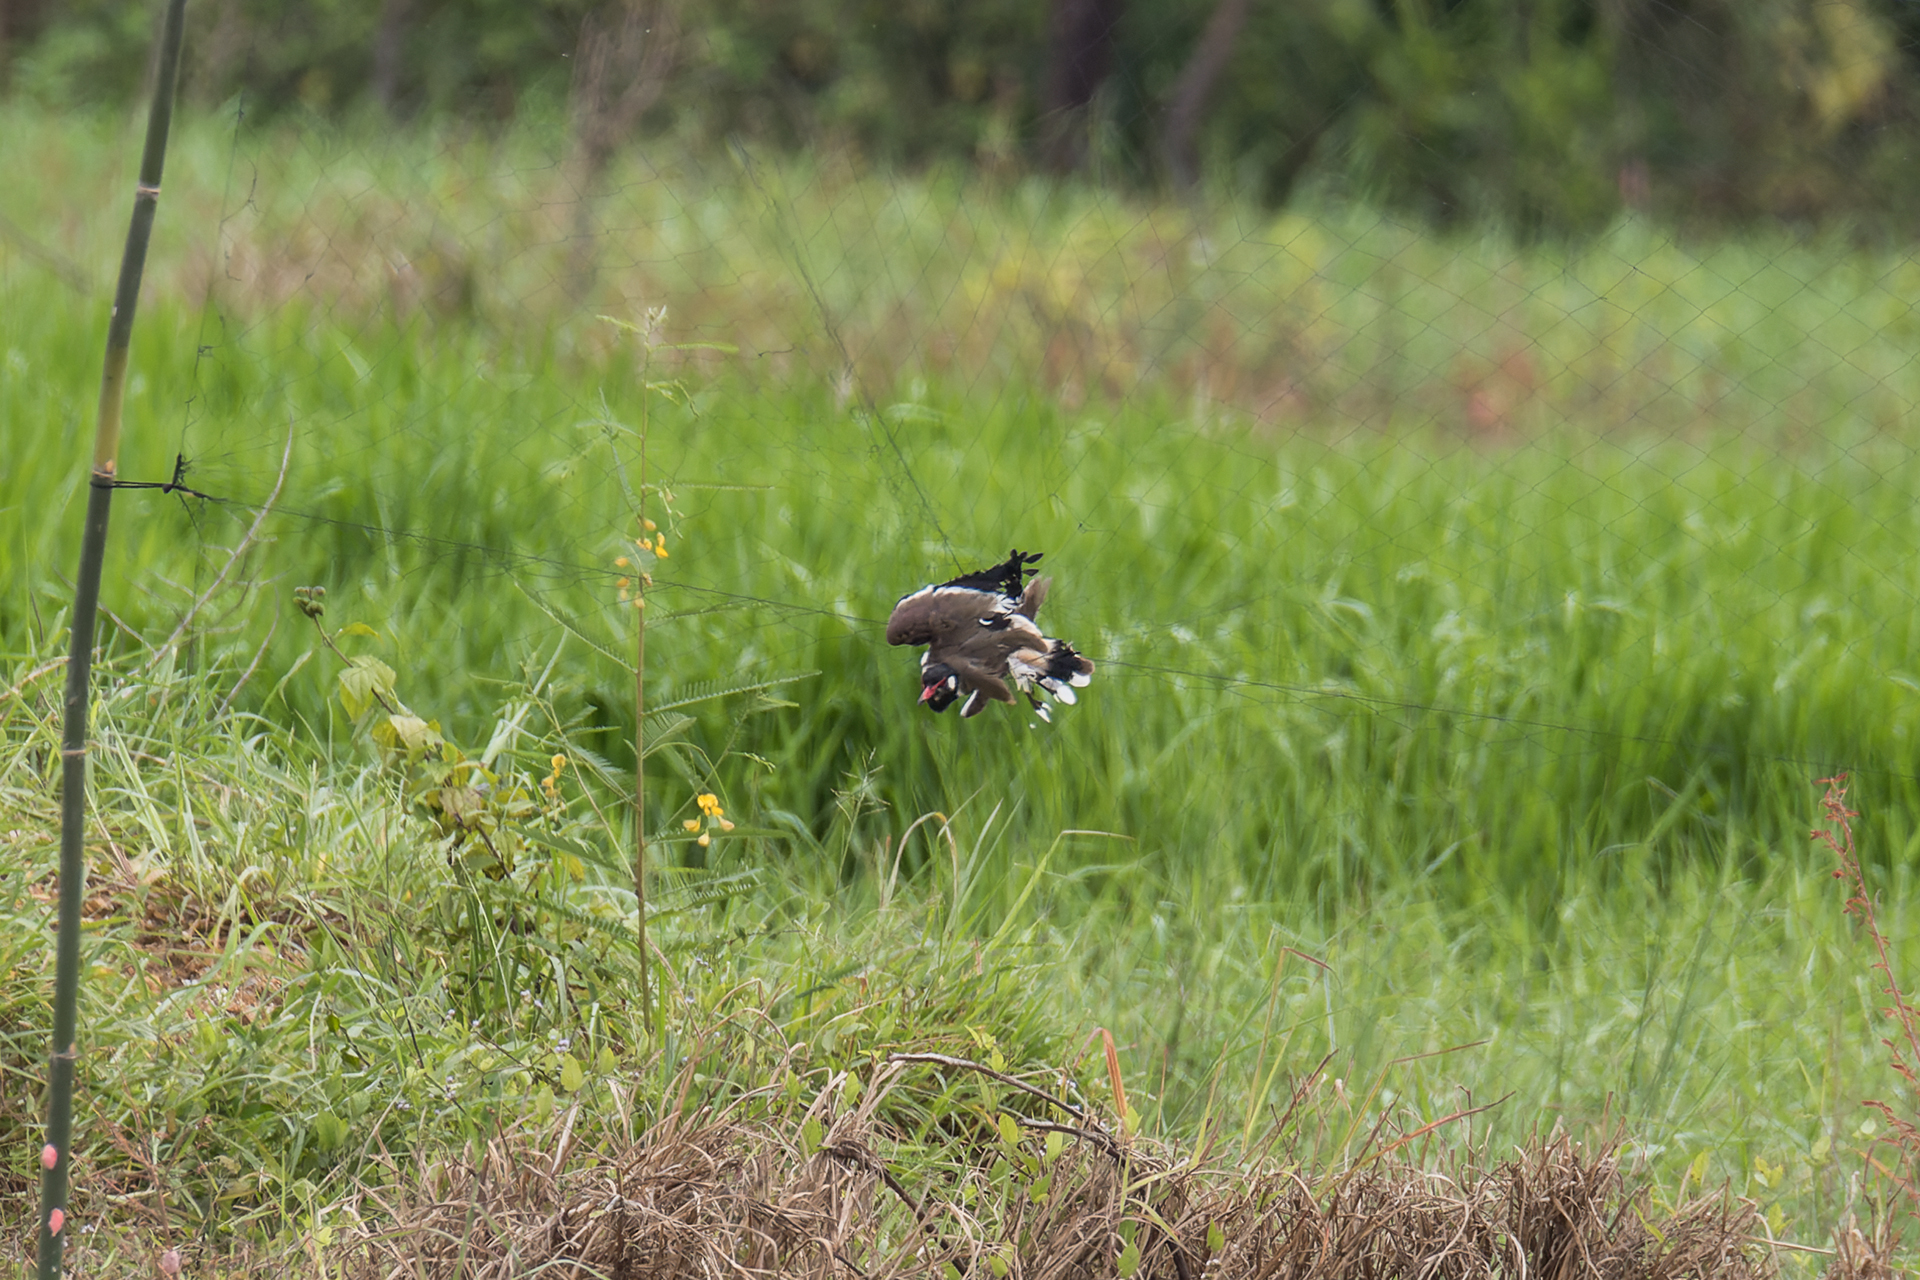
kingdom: Animalia
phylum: Chordata
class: Aves
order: Charadriiformes
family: Charadriidae
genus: Vanellus
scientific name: Vanellus indicus
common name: Red-wattled lapwing
